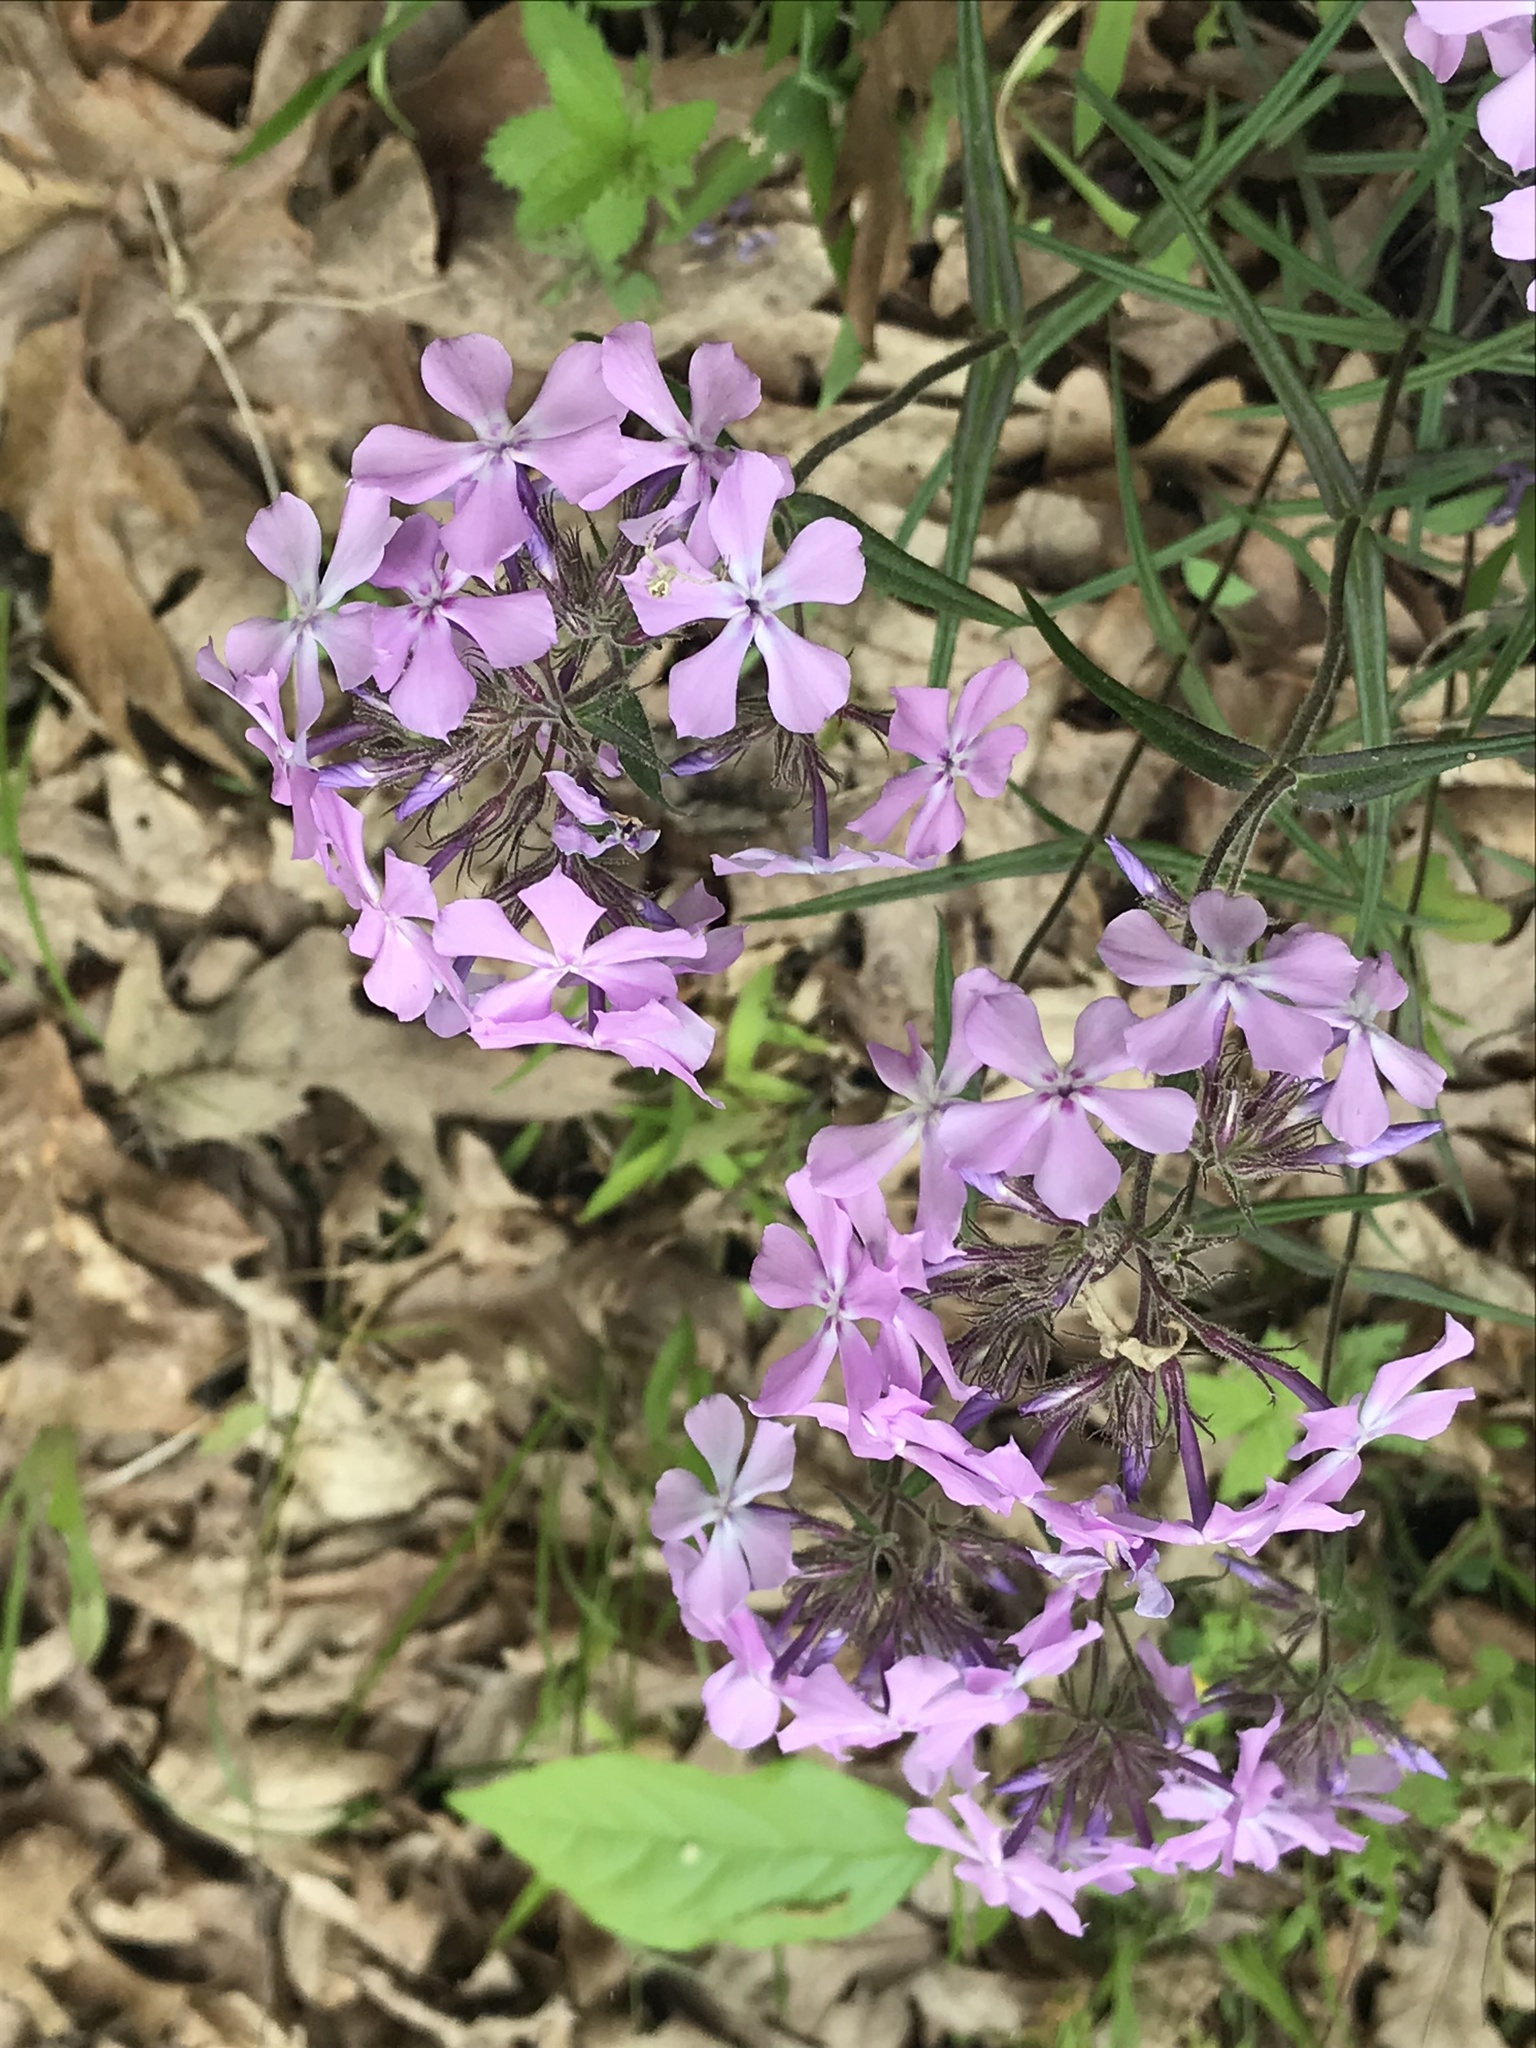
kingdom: Plantae
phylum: Tracheophyta
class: Magnoliopsida
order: Ericales
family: Polemoniaceae
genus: Phlox
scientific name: Phlox pilosa
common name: Prairie phlox
